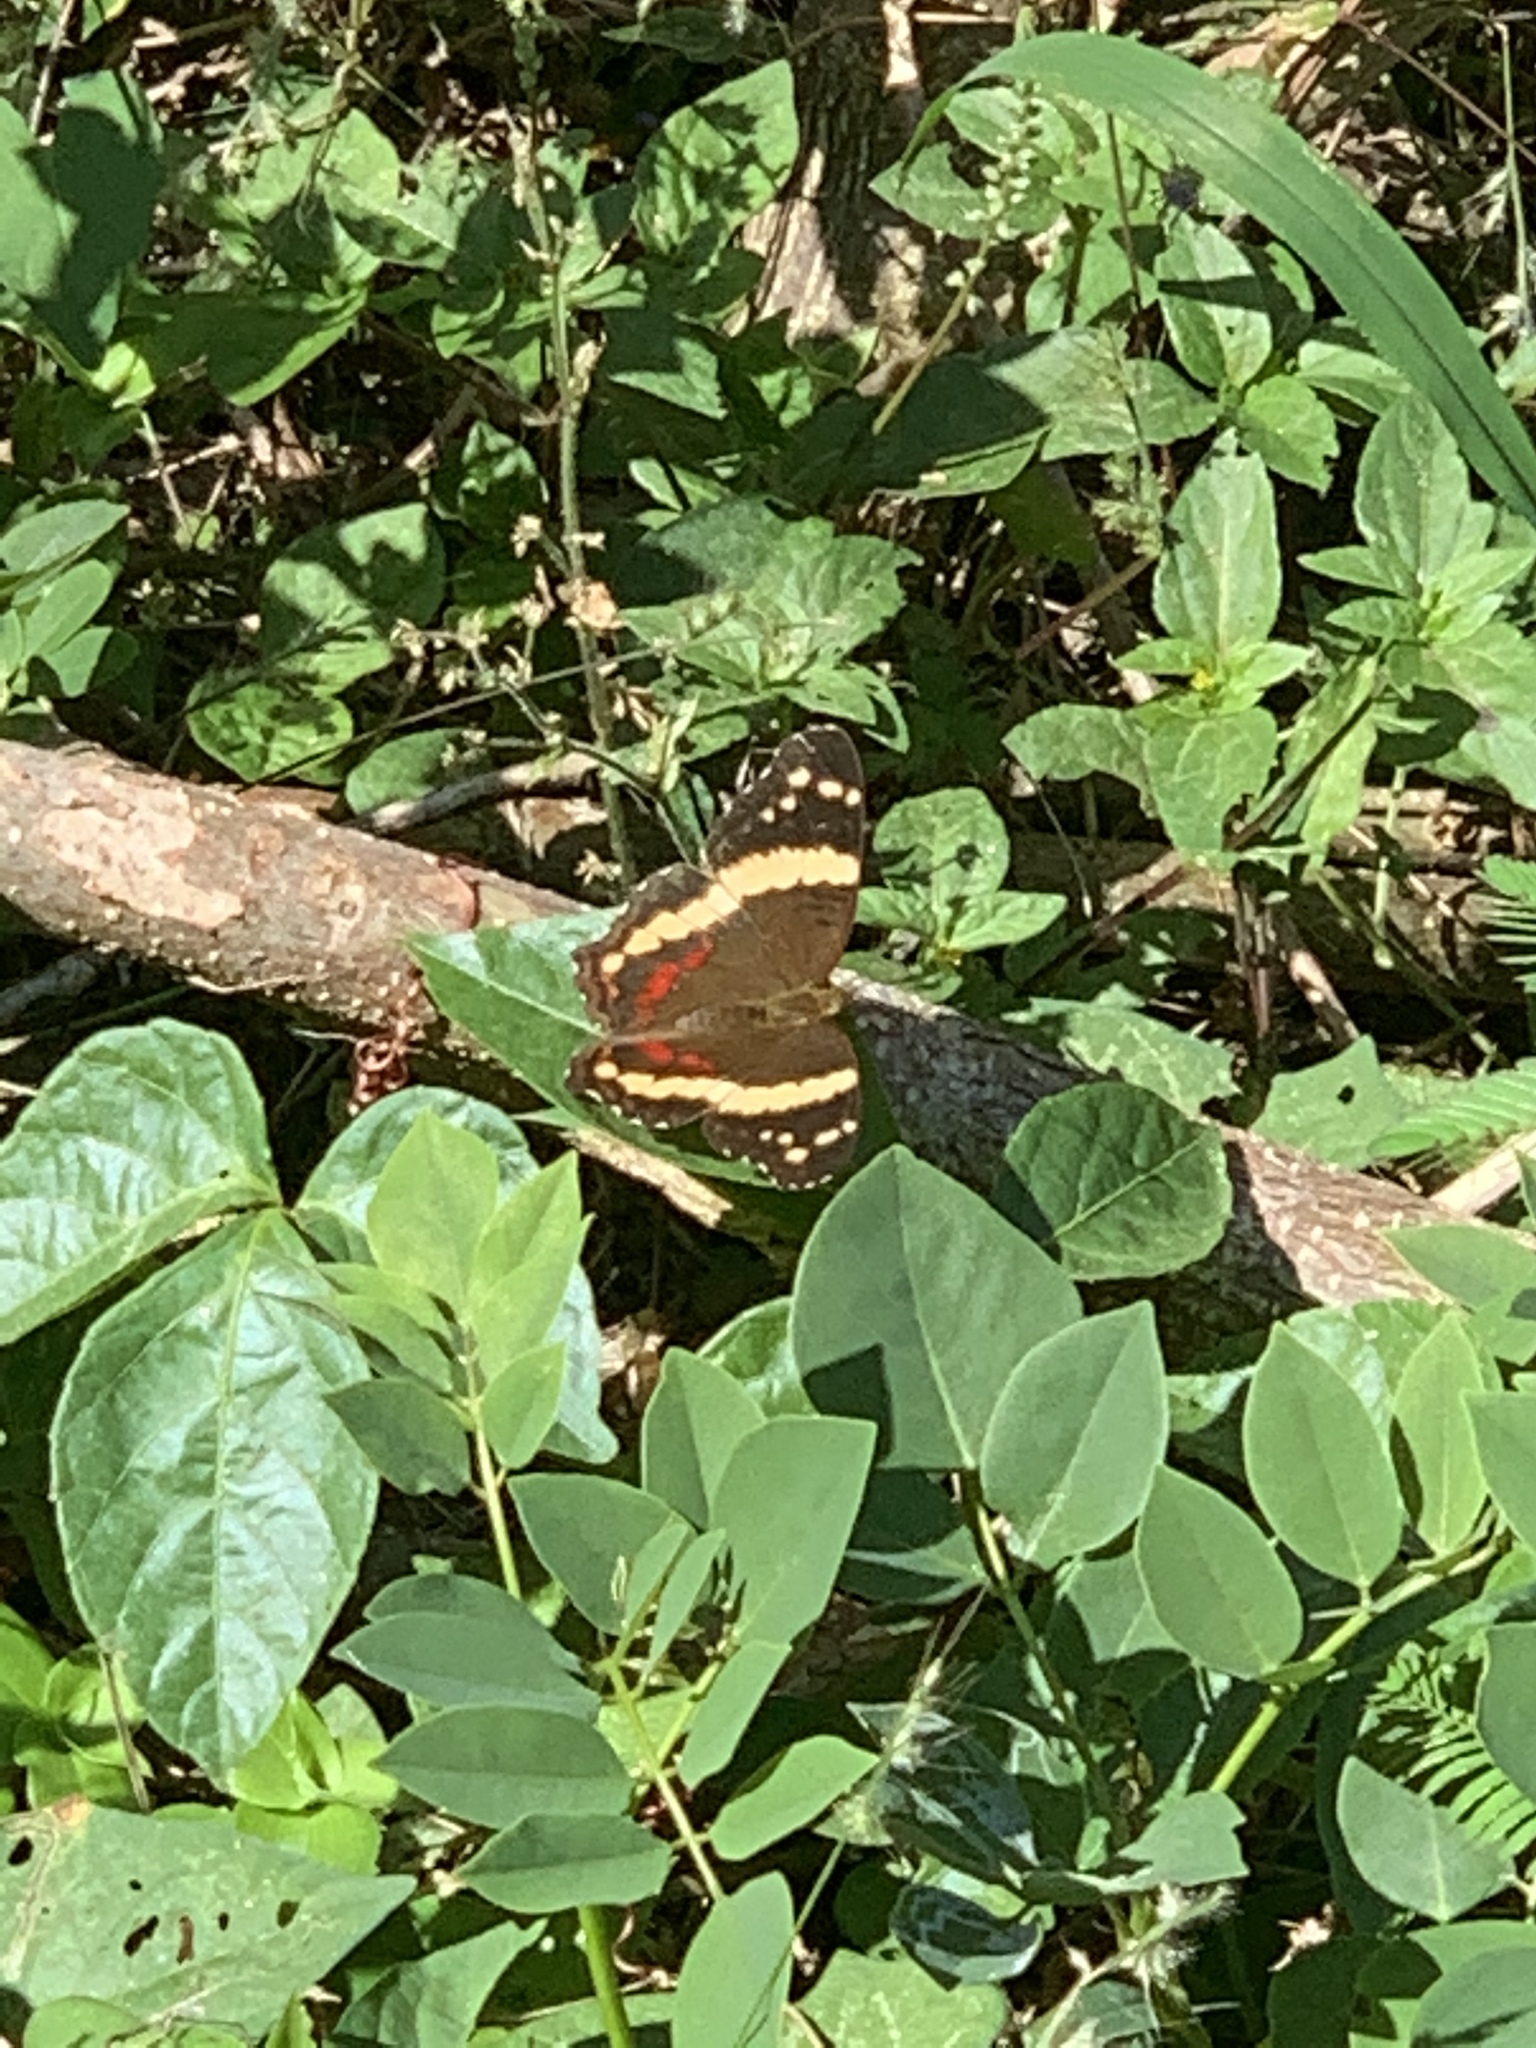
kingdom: Animalia
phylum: Arthropoda
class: Insecta
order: Lepidoptera
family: Nymphalidae
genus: Anartia
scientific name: Anartia fatima
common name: Banded peacock
